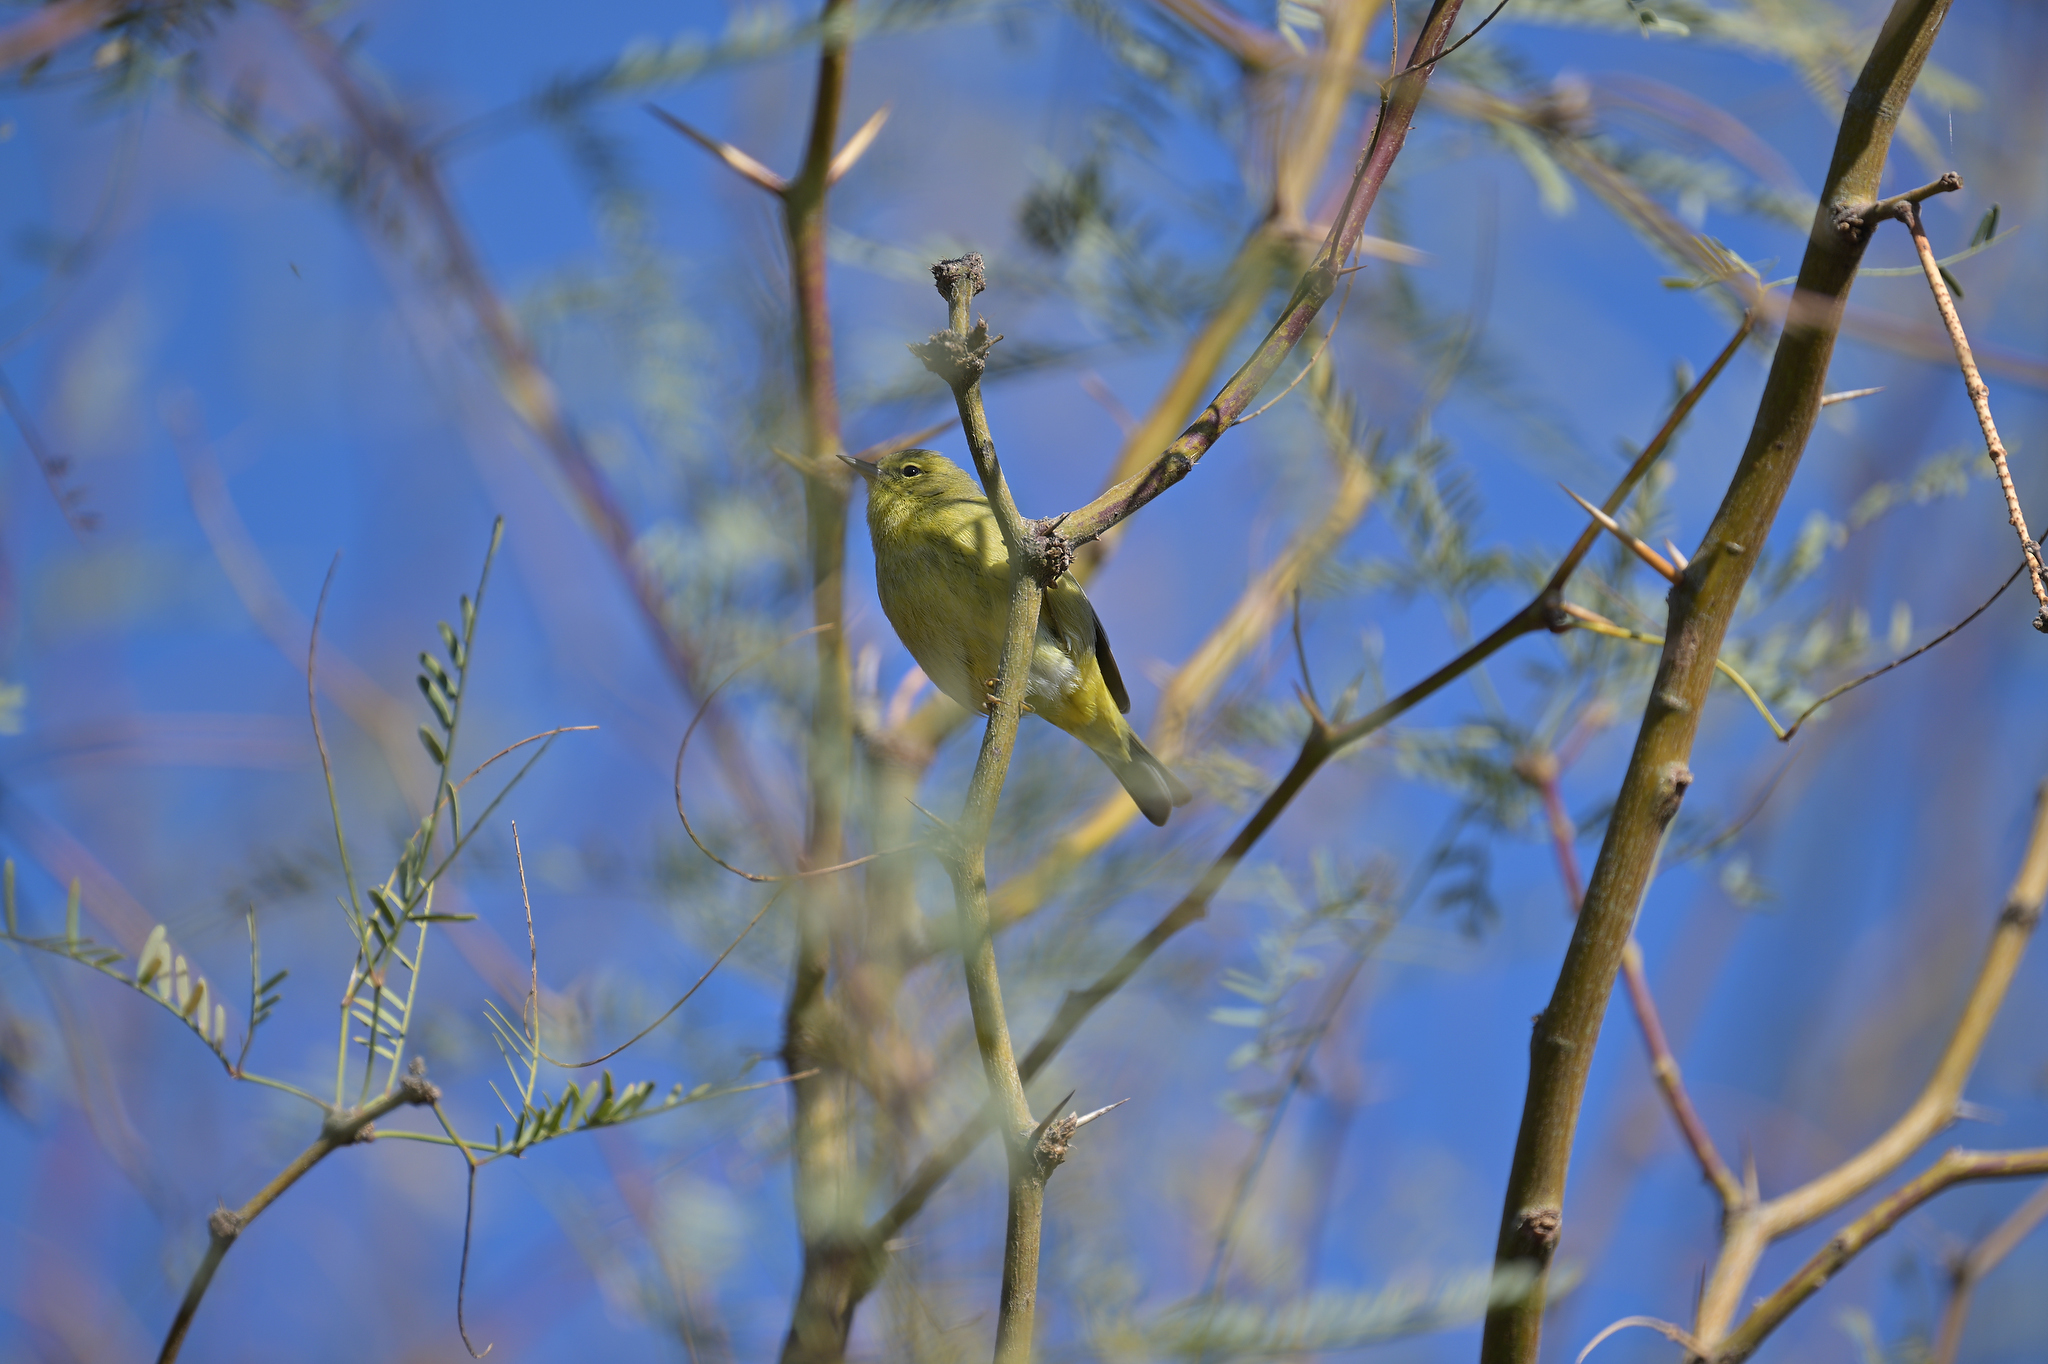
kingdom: Animalia
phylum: Chordata
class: Aves
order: Passeriformes
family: Parulidae
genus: Leiothlypis
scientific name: Leiothlypis celata
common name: Orange-crowned warbler
